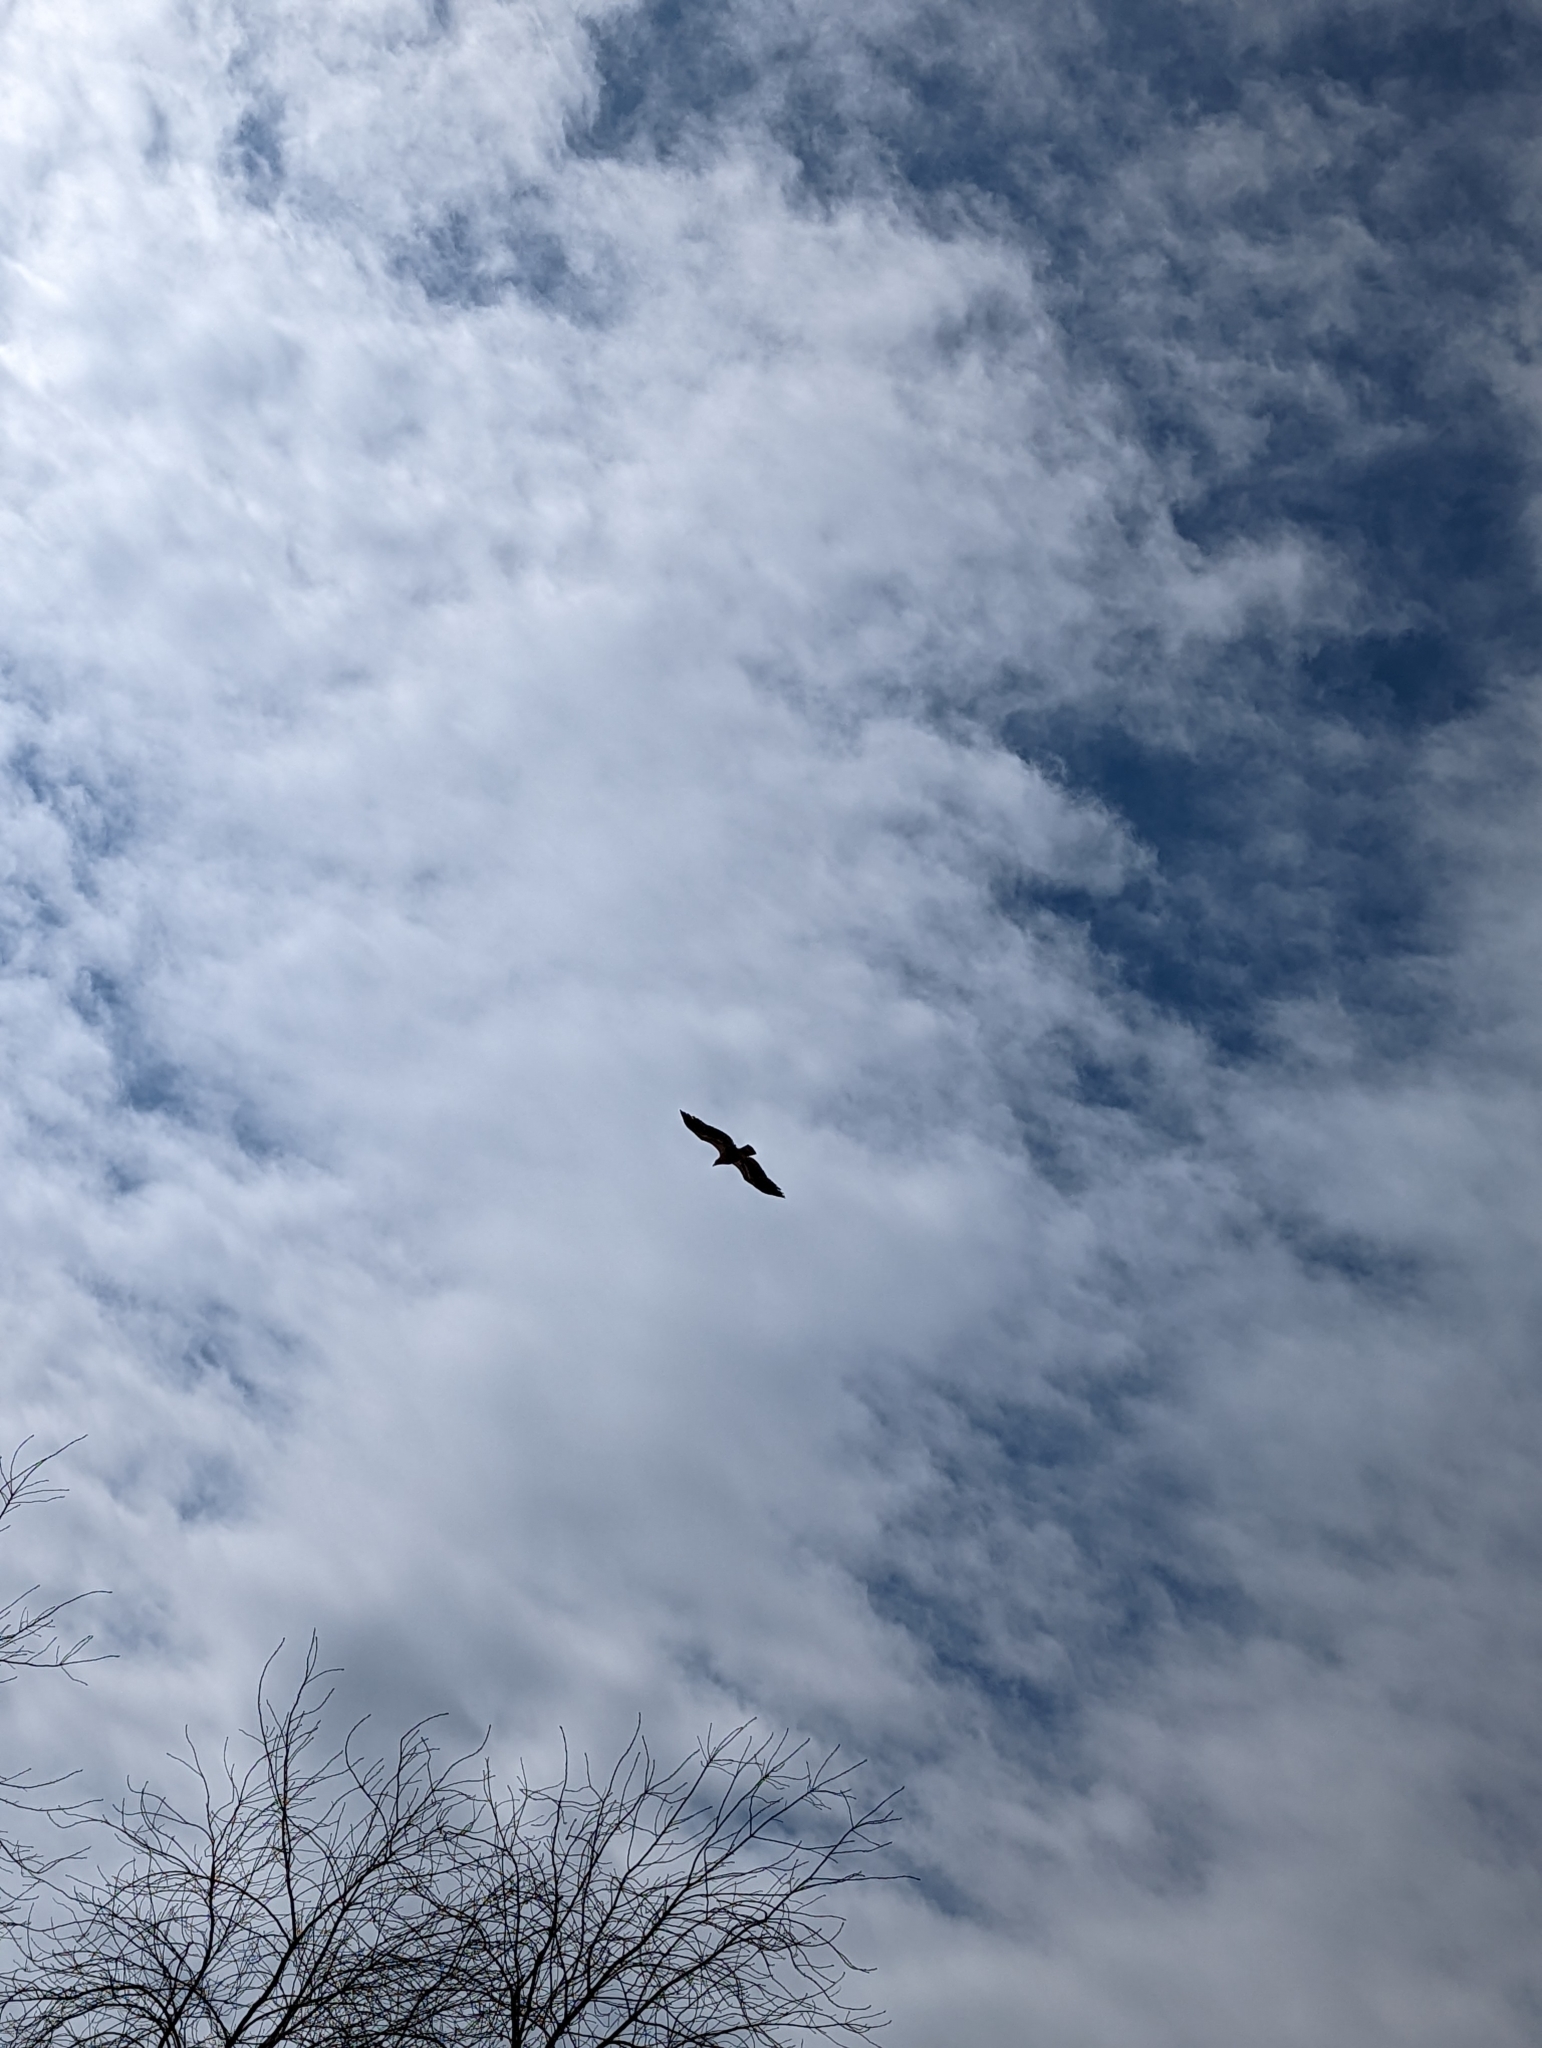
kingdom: Animalia
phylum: Chordata
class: Aves
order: Accipitriformes
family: Accipitridae
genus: Haliaeetus
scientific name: Haliaeetus leucocephalus
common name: Bald eagle
